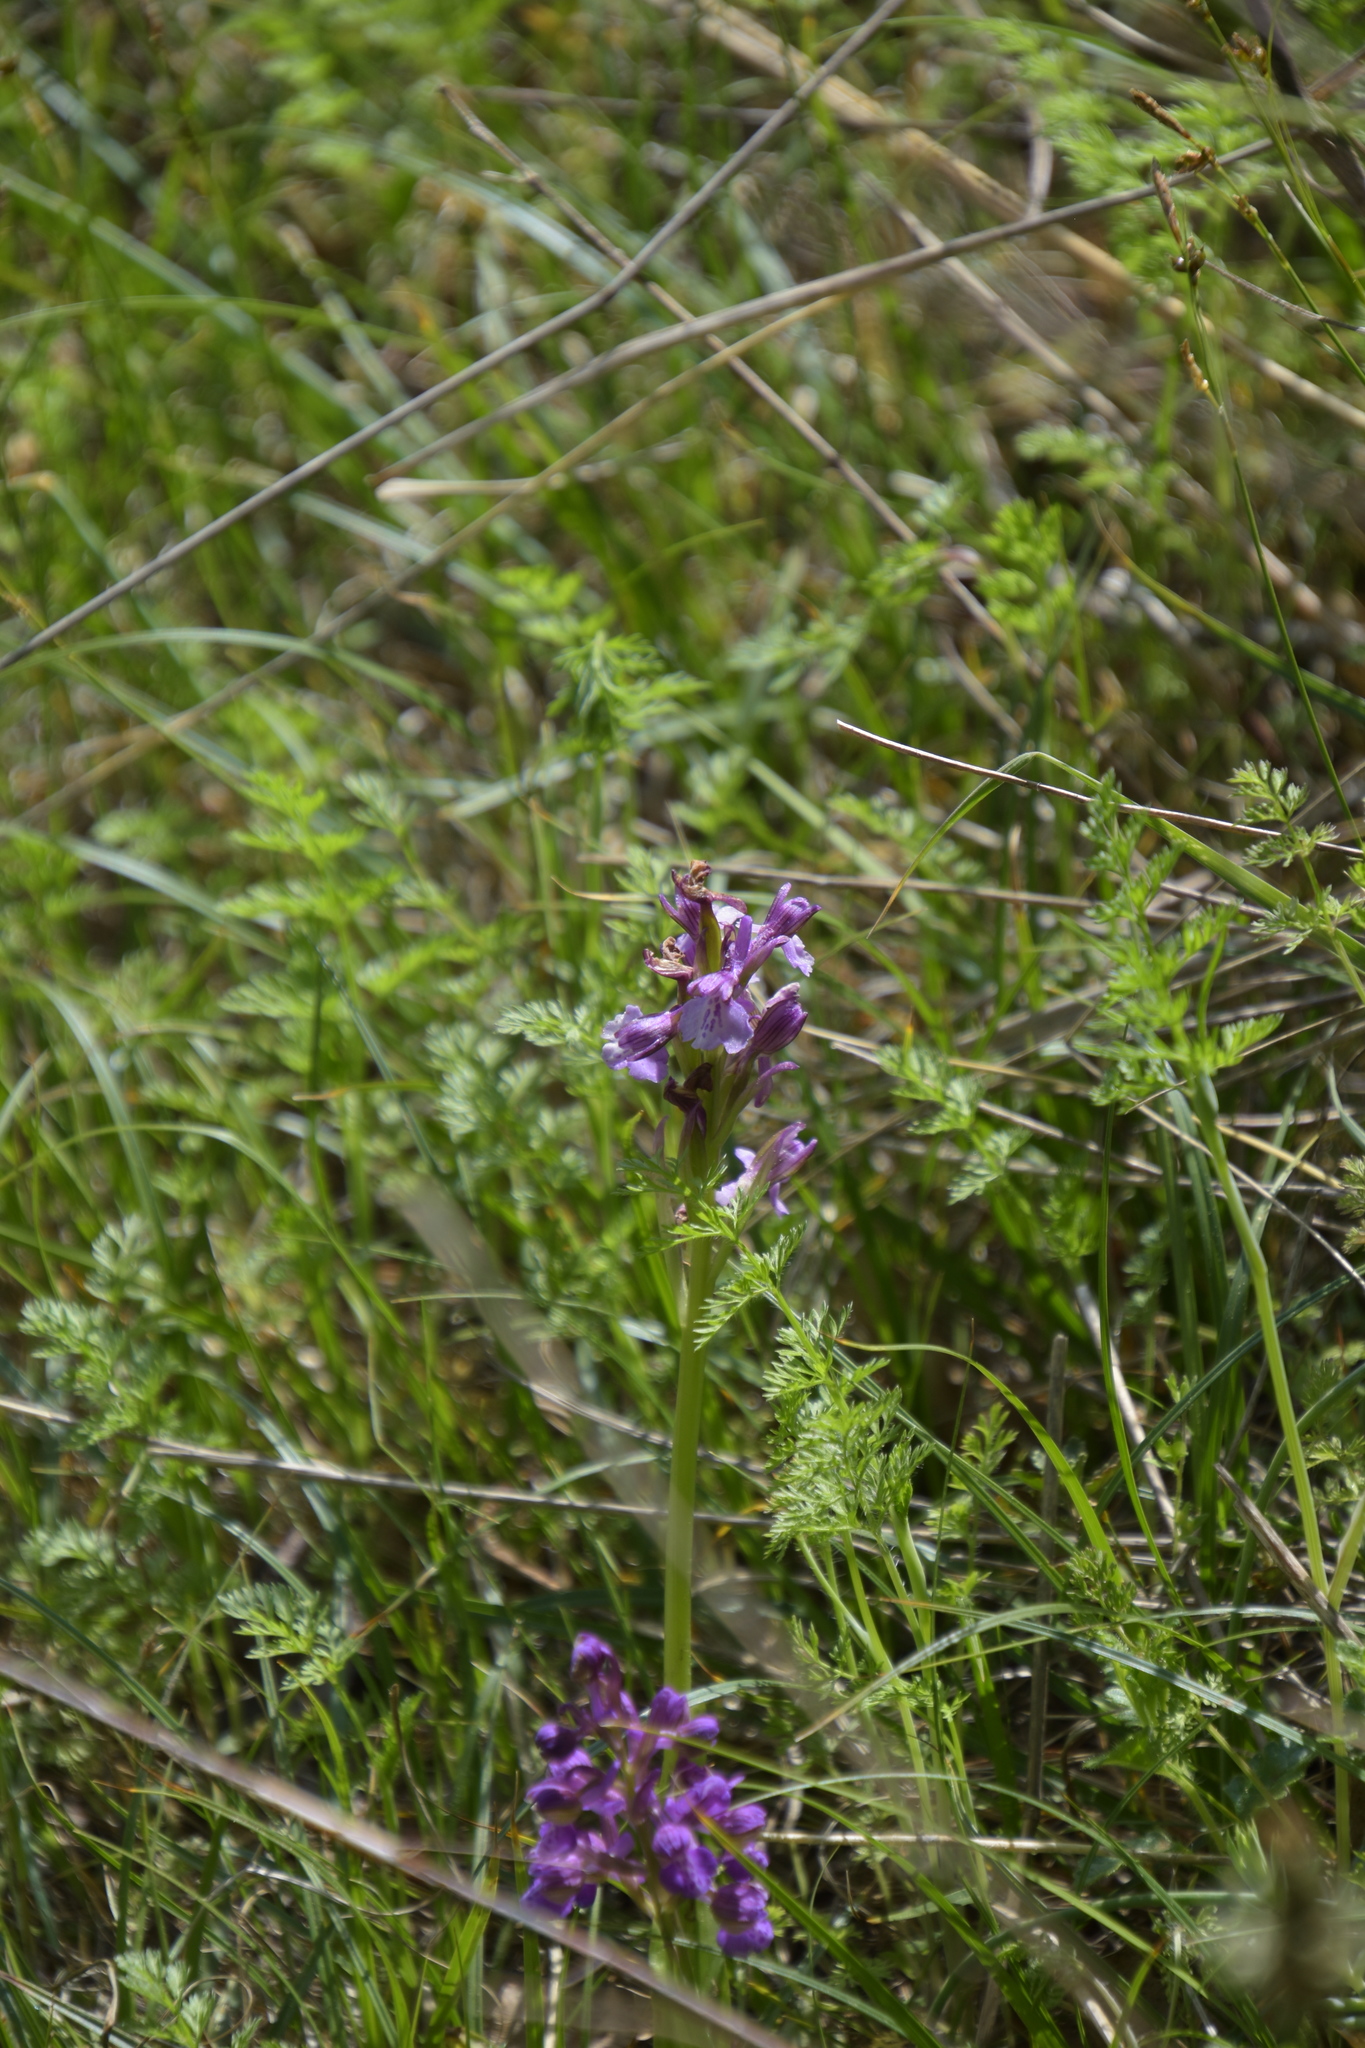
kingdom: Plantae
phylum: Tracheophyta
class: Liliopsida
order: Asparagales
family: Orchidaceae
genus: Anacamptis
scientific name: Anacamptis morio
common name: Green-winged orchid
